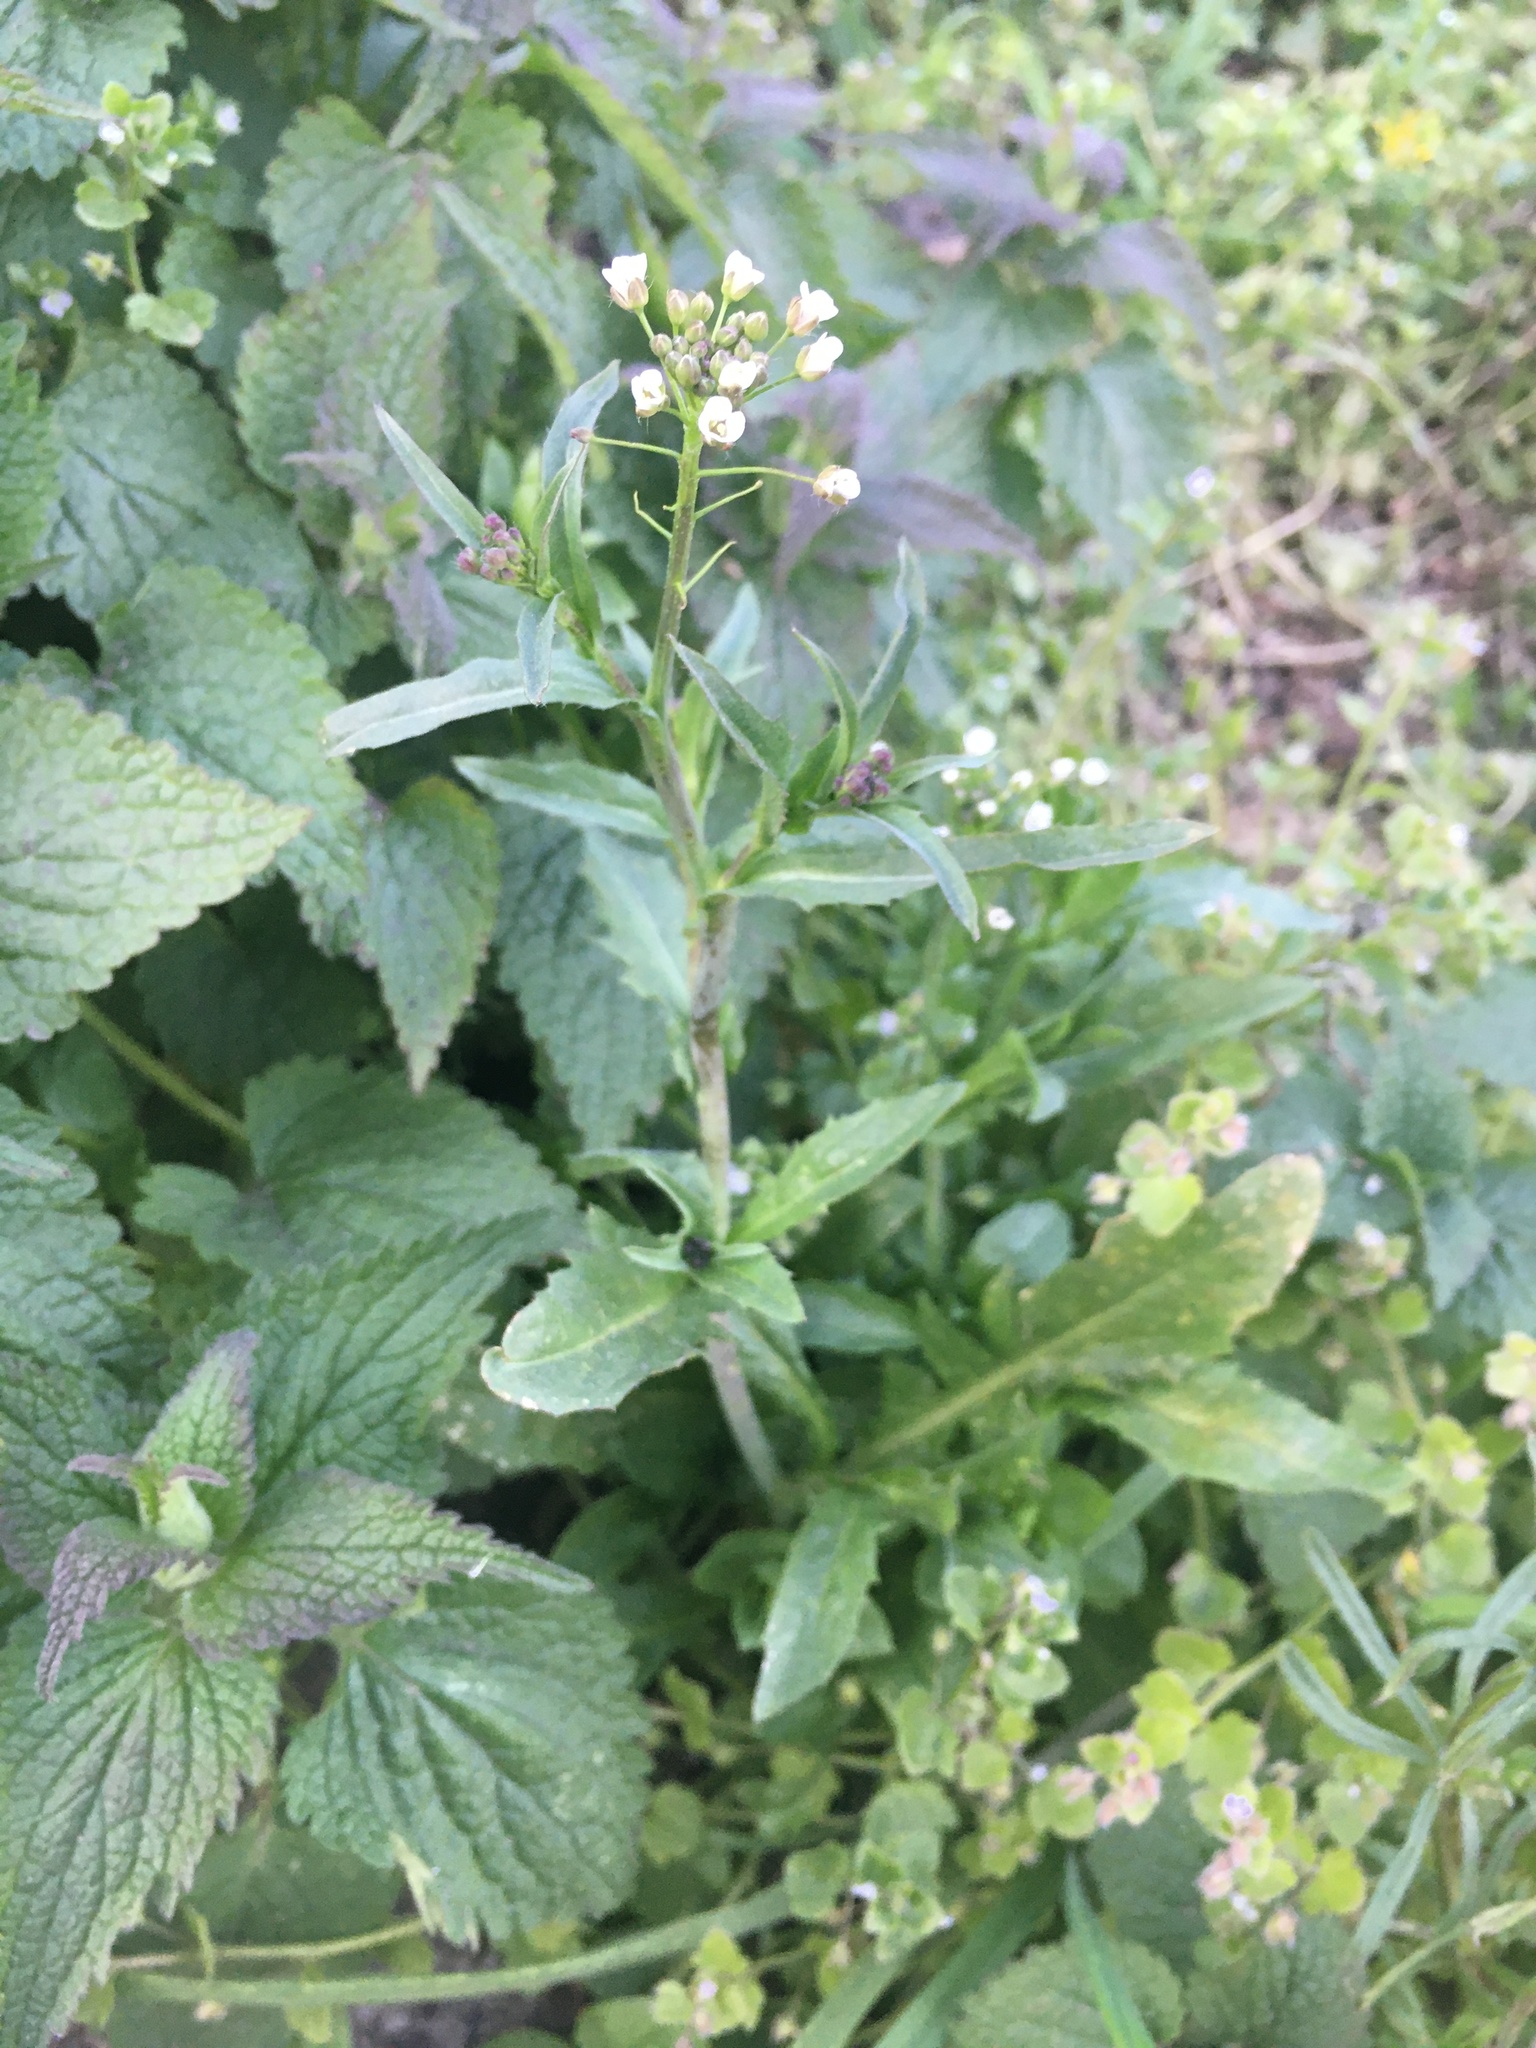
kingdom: Plantae
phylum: Tracheophyta
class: Magnoliopsida
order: Brassicales
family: Brassicaceae
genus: Capsella
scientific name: Capsella bursa-pastoris
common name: Shepherd's purse
